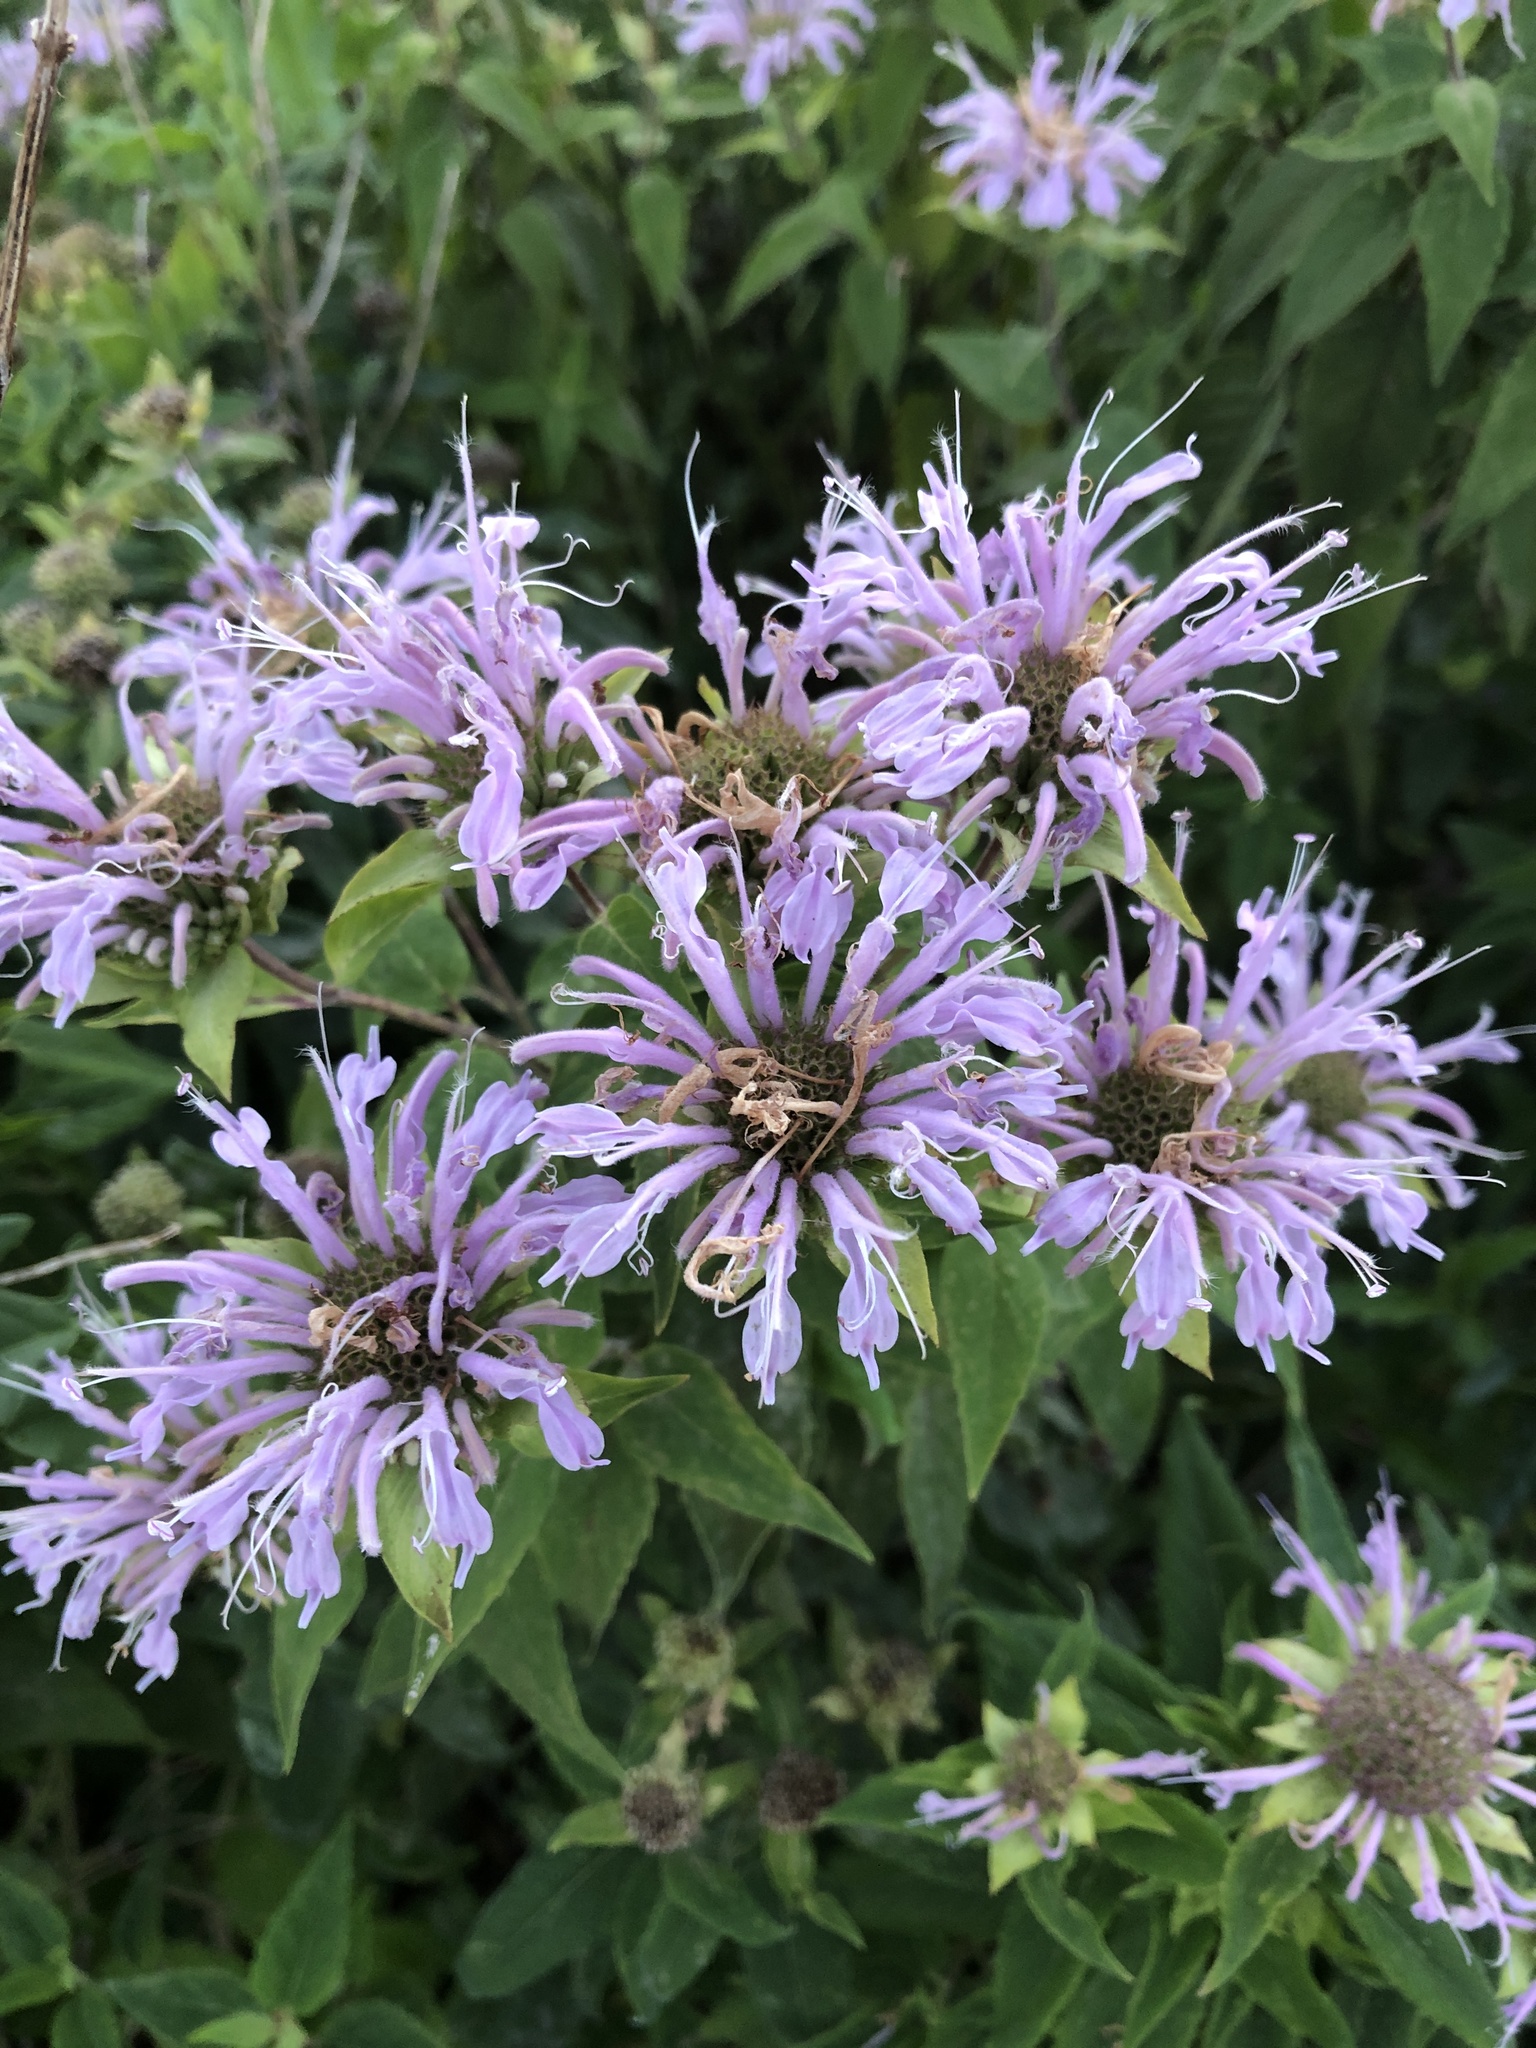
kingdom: Plantae
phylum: Tracheophyta
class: Magnoliopsida
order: Lamiales
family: Lamiaceae
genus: Monarda
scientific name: Monarda fistulosa
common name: Purple beebalm
